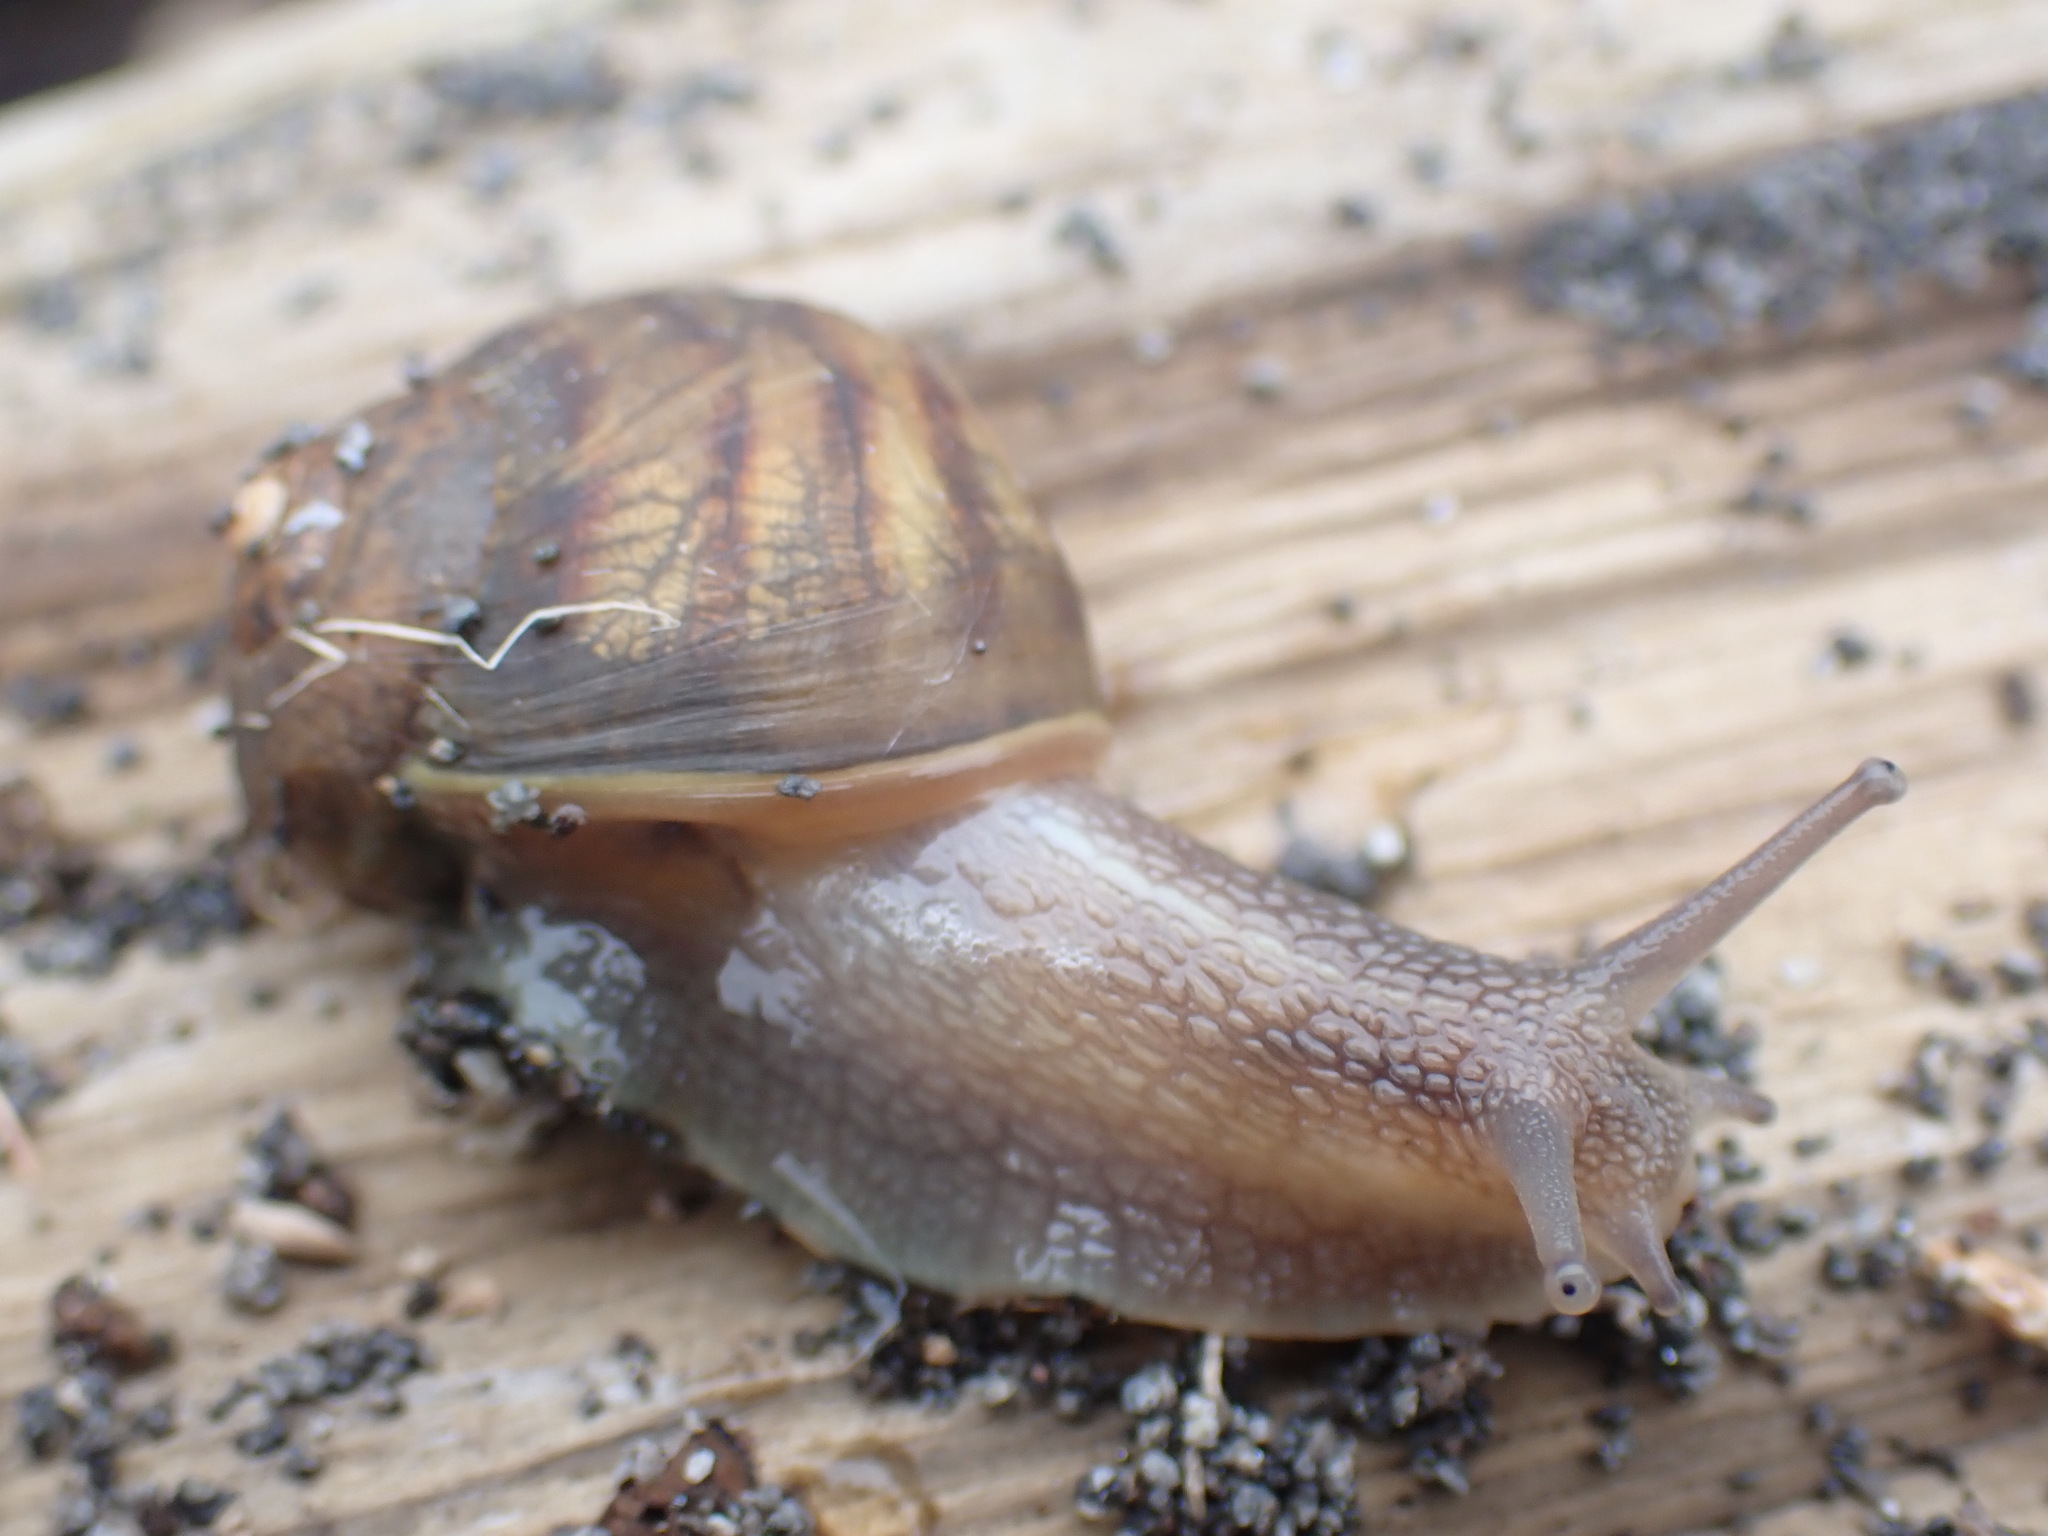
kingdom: Animalia
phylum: Mollusca
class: Gastropoda
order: Stylommatophora
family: Helicidae
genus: Cornu
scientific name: Cornu aspersum
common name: Brown garden snail
